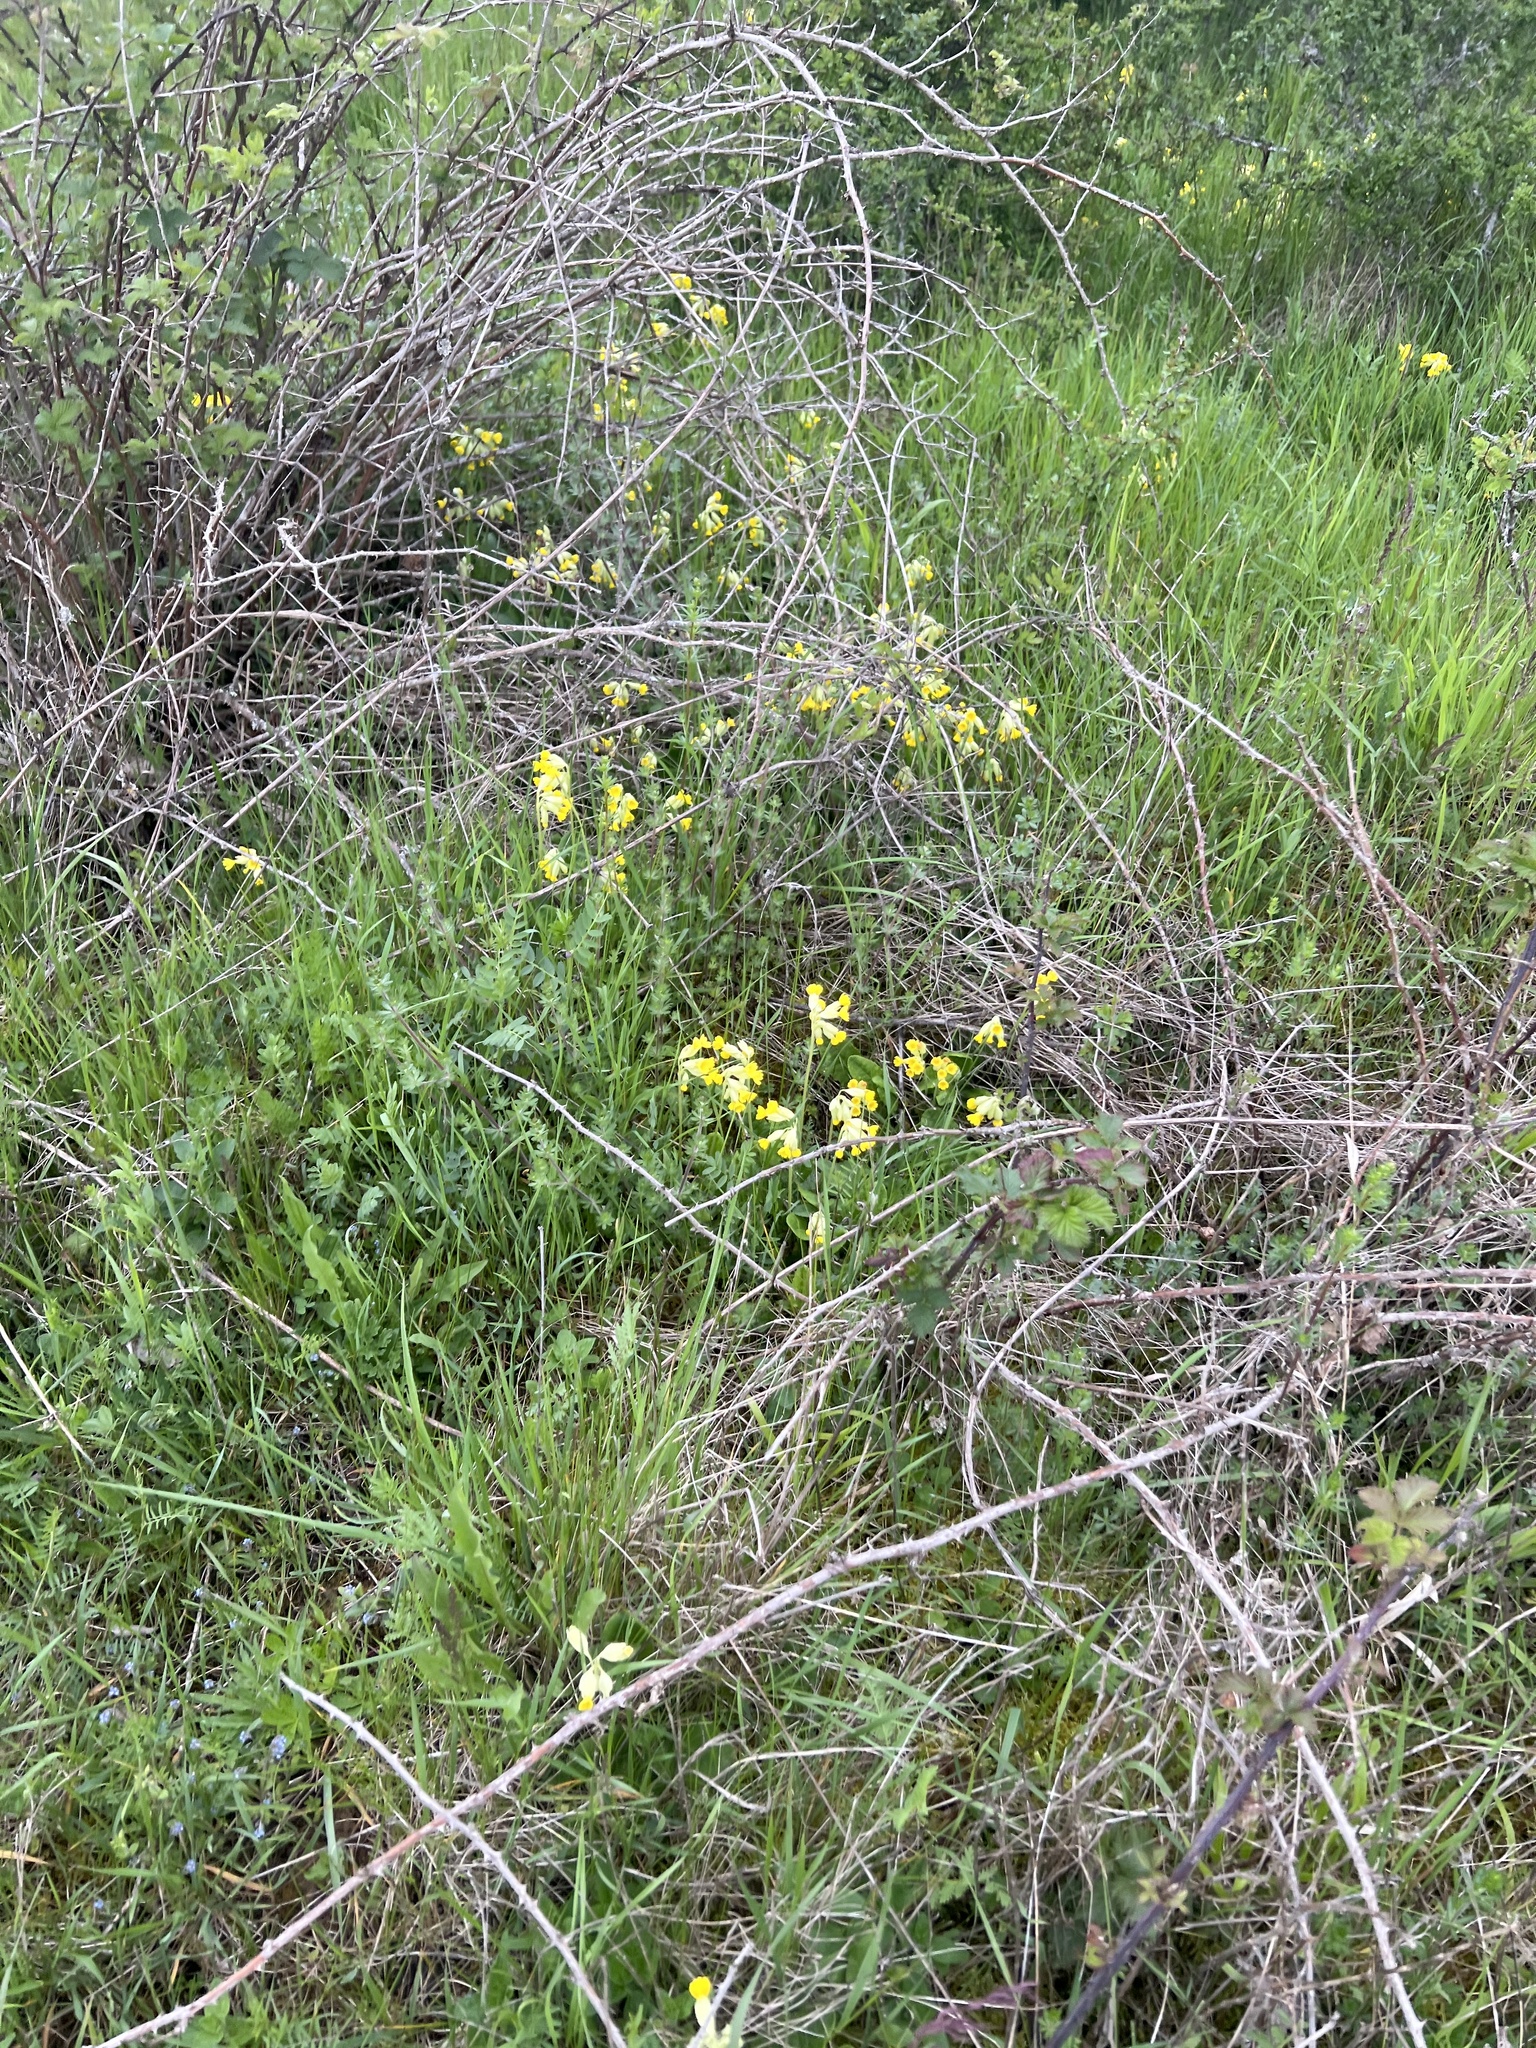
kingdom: Plantae
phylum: Tracheophyta
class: Magnoliopsida
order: Ericales
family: Primulaceae
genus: Primula
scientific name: Primula veris
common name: Cowslip
